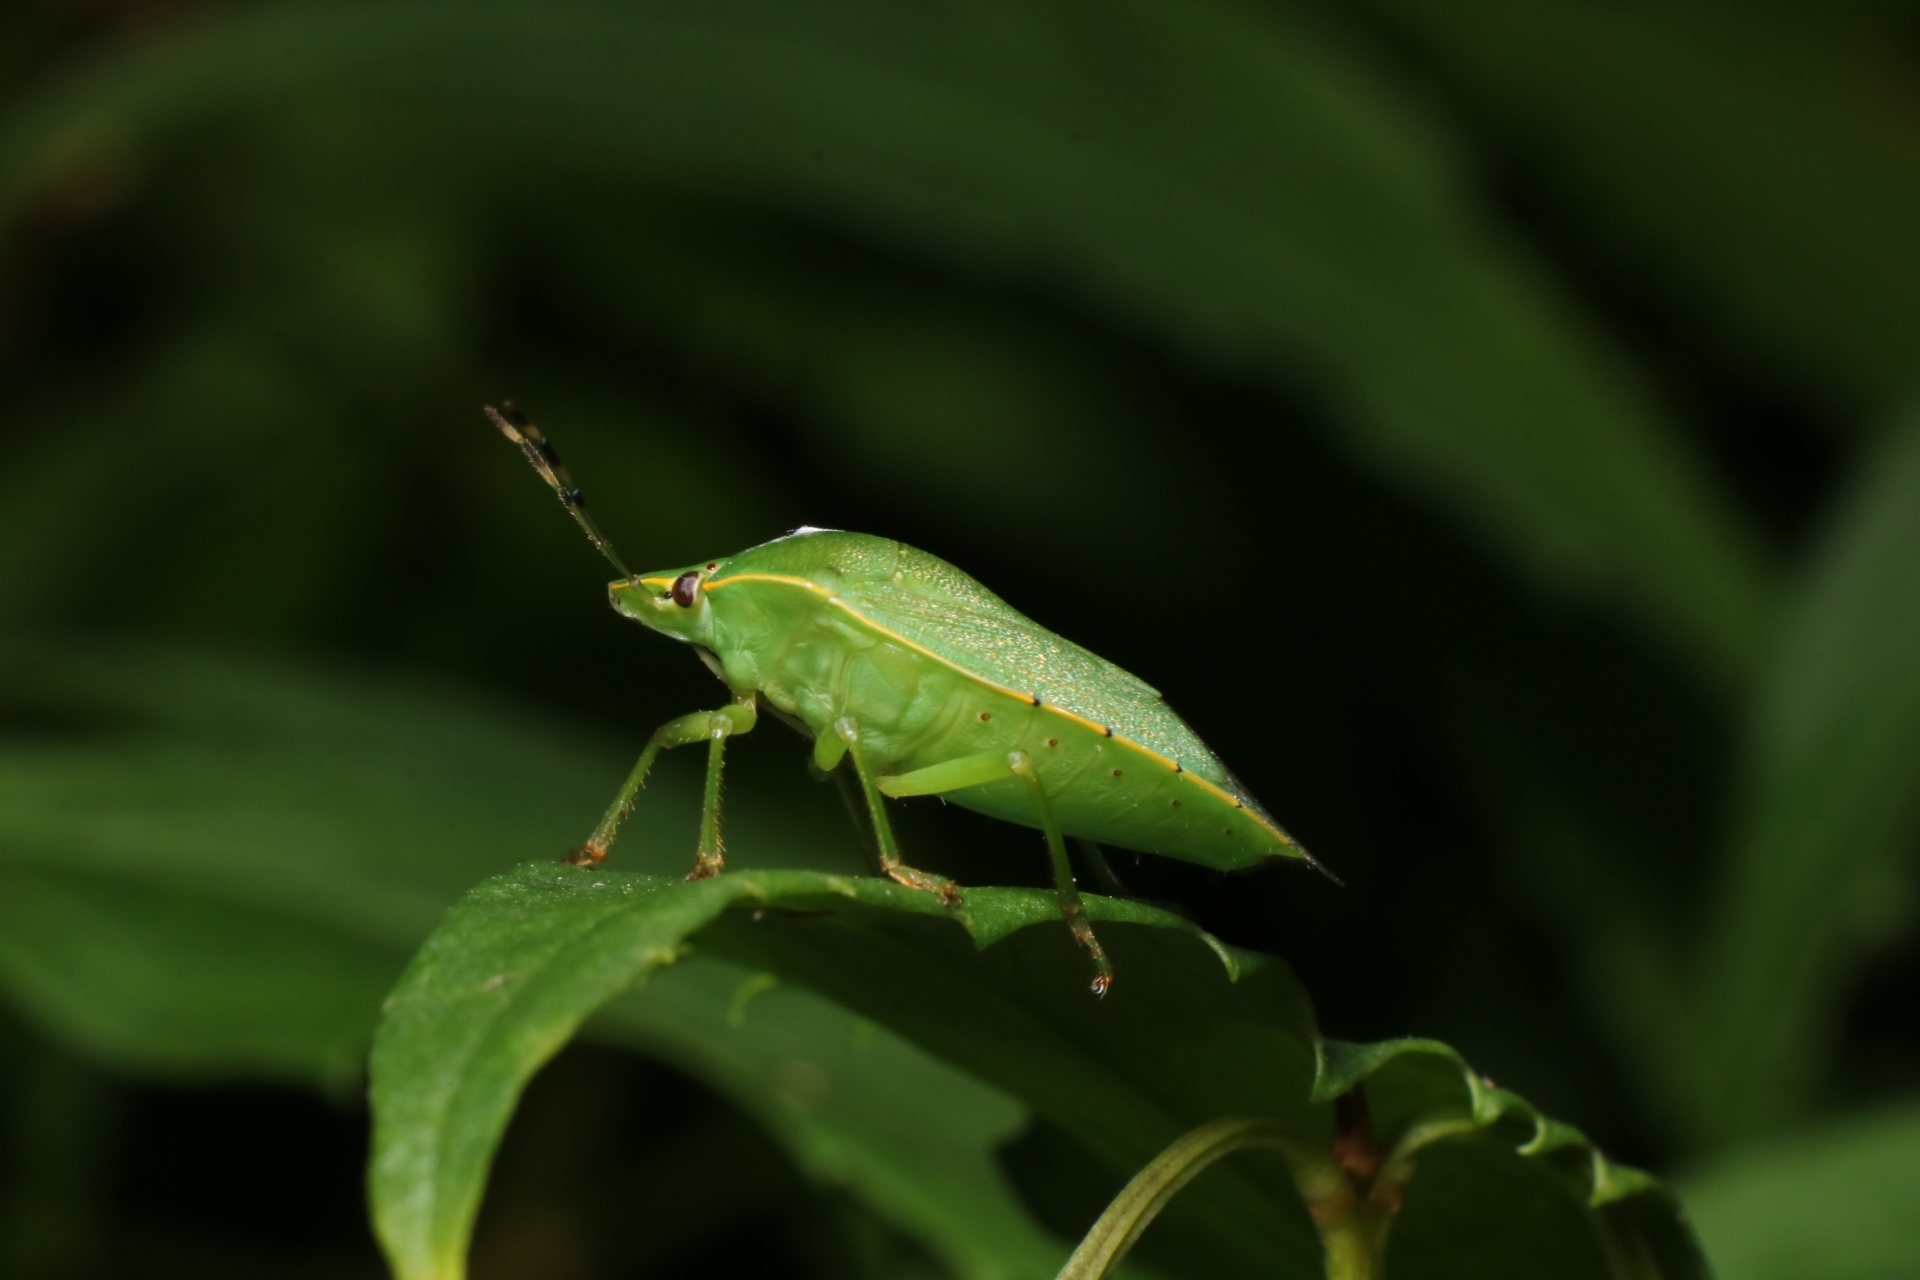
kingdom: Animalia
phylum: Arthropoda
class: Insecta
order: Hemiptera
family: Pentatomidae
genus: Chinavia
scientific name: Chinavia hilaris
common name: Green stink bug
